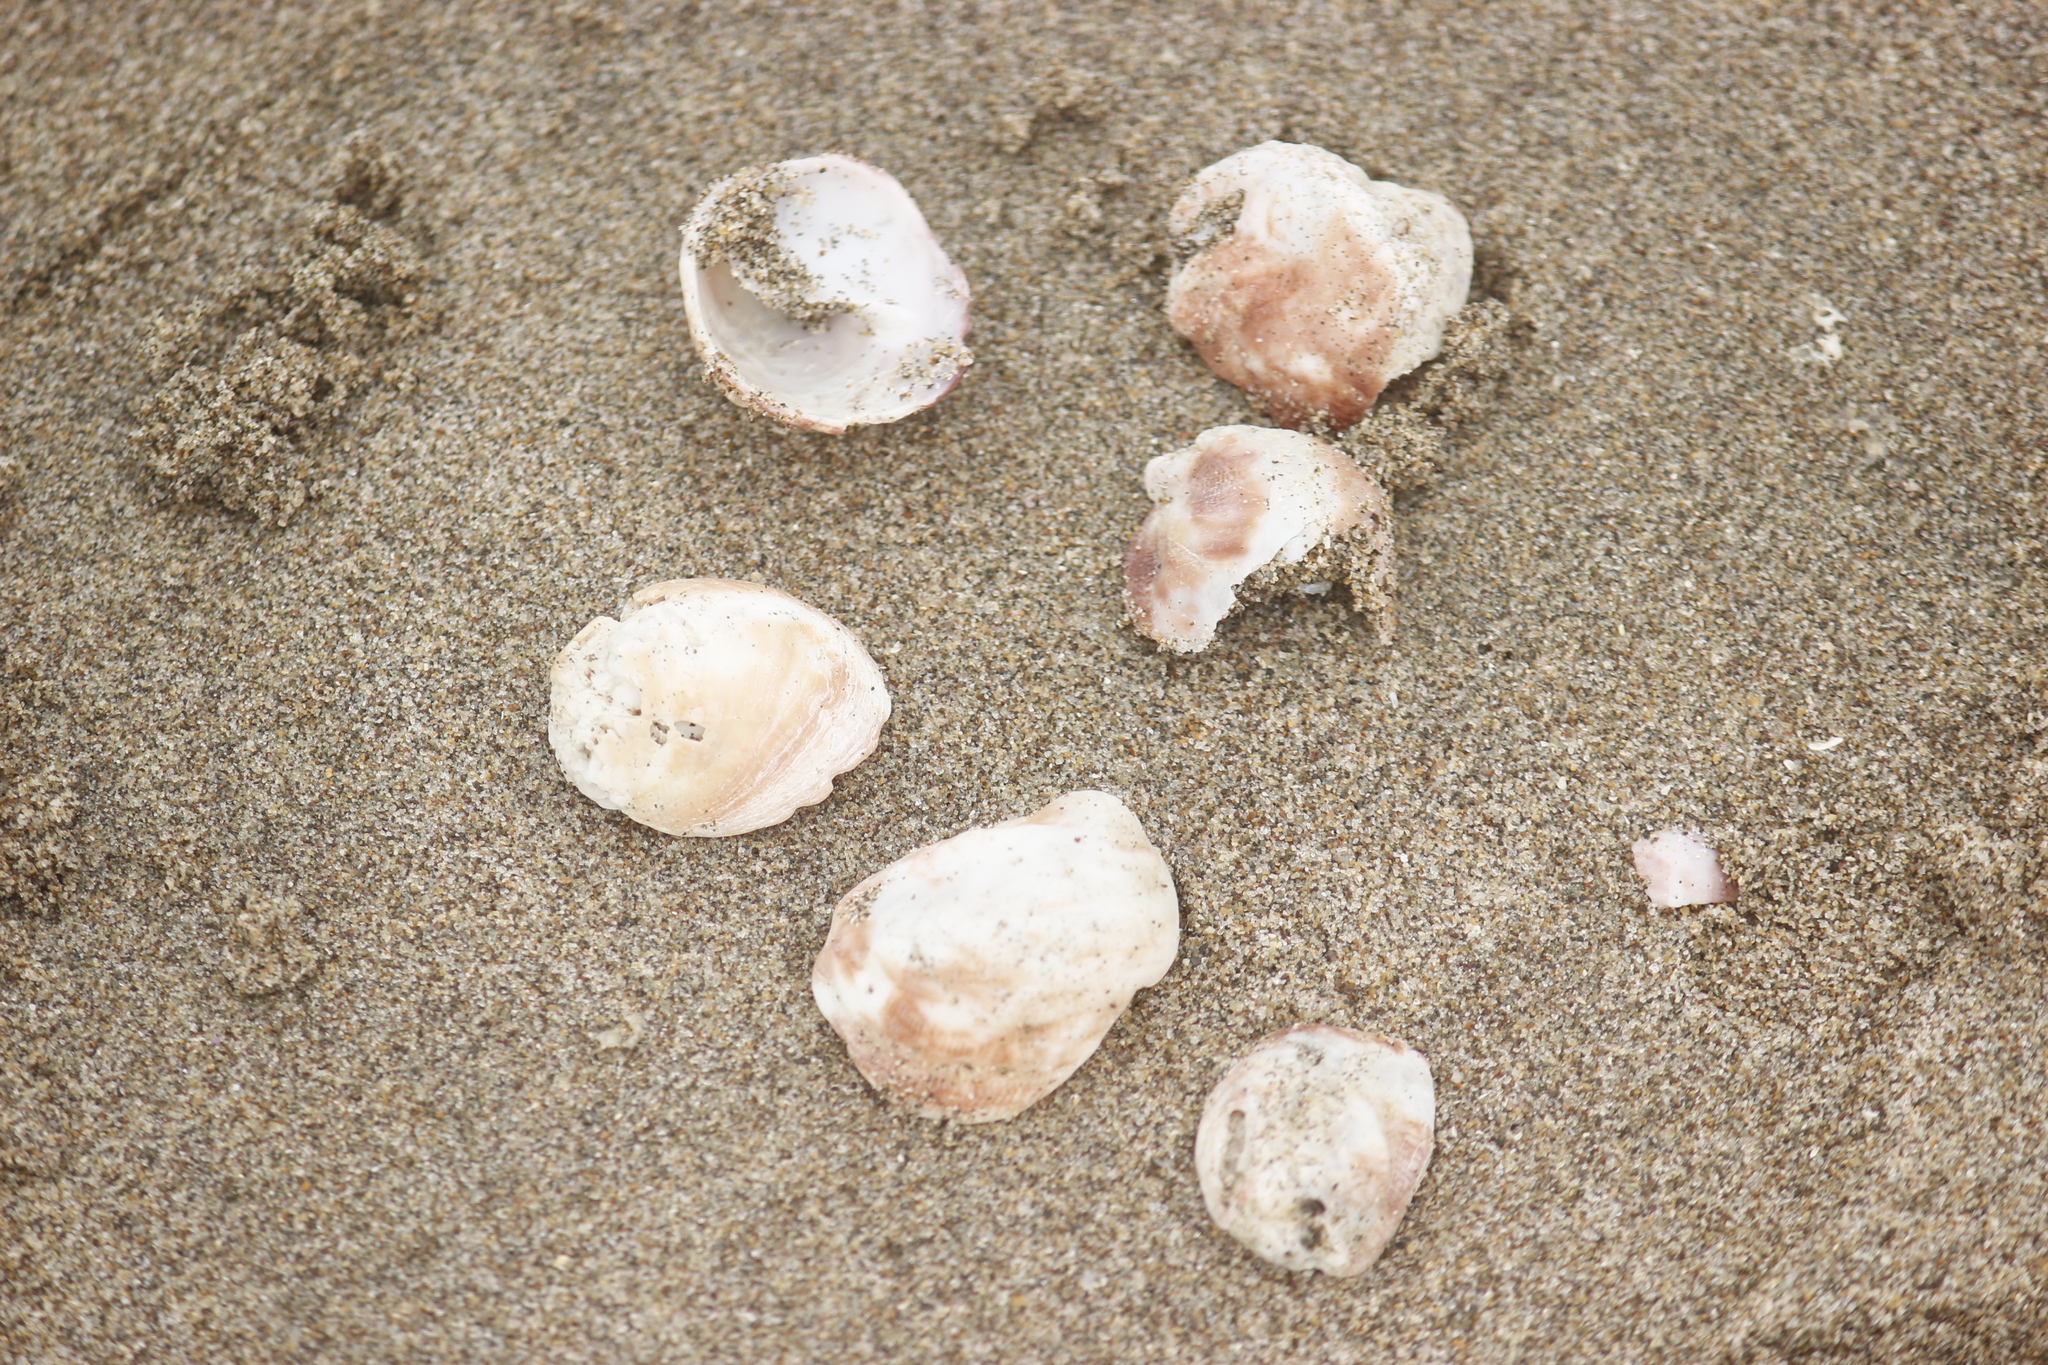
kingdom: Animalia
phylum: Mollusca
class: Gastropoda
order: Littorinimorpha
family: Calyptraeidae
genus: Crepipatella
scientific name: Crepipatella dilatata
